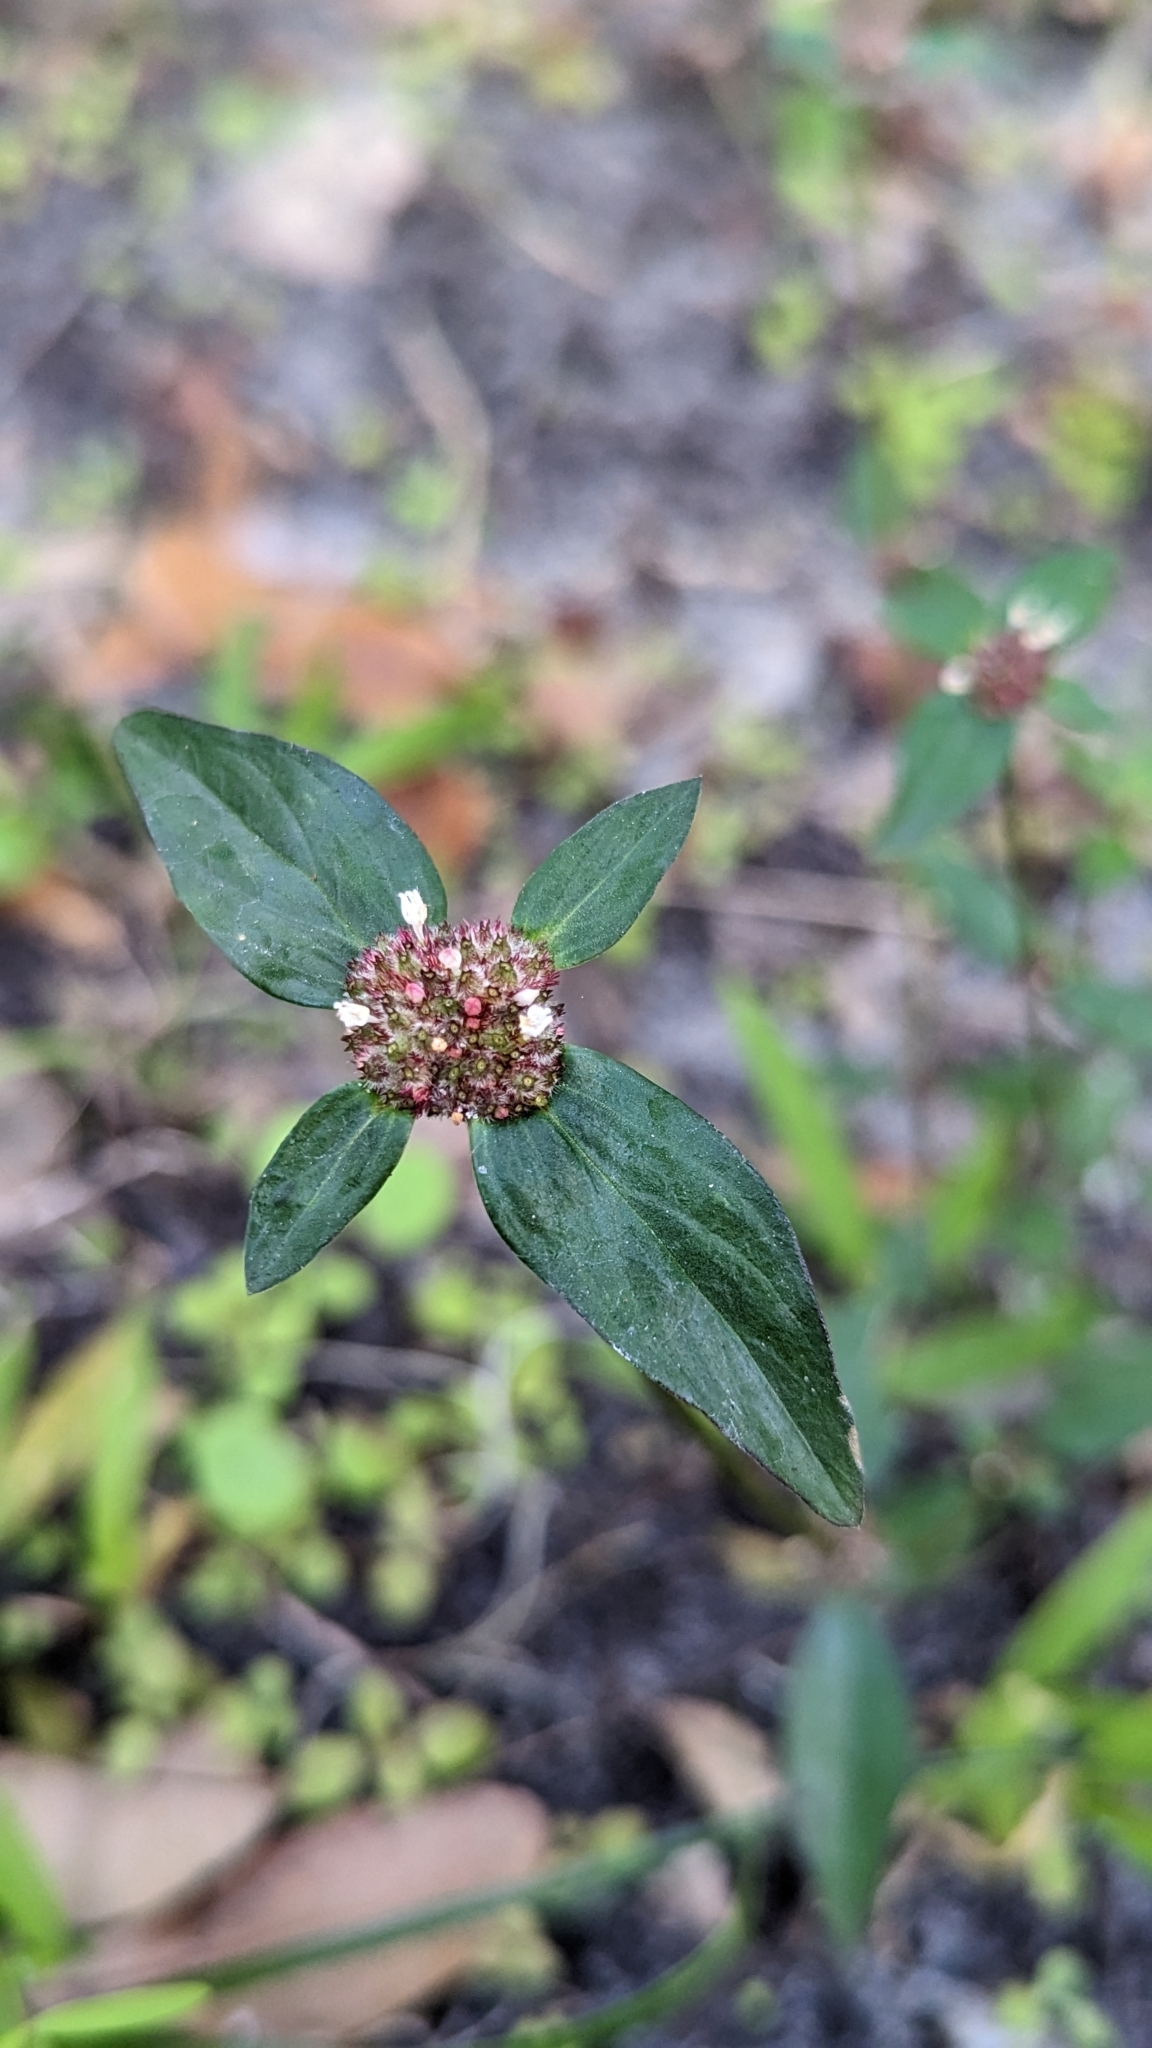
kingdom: Plantae
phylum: Tracheophyta
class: Magnoliopsida
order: Gentianales
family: Rubiaceae
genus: Spermacoce
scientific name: Spermacoce remota
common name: Woodland false buttonweed
